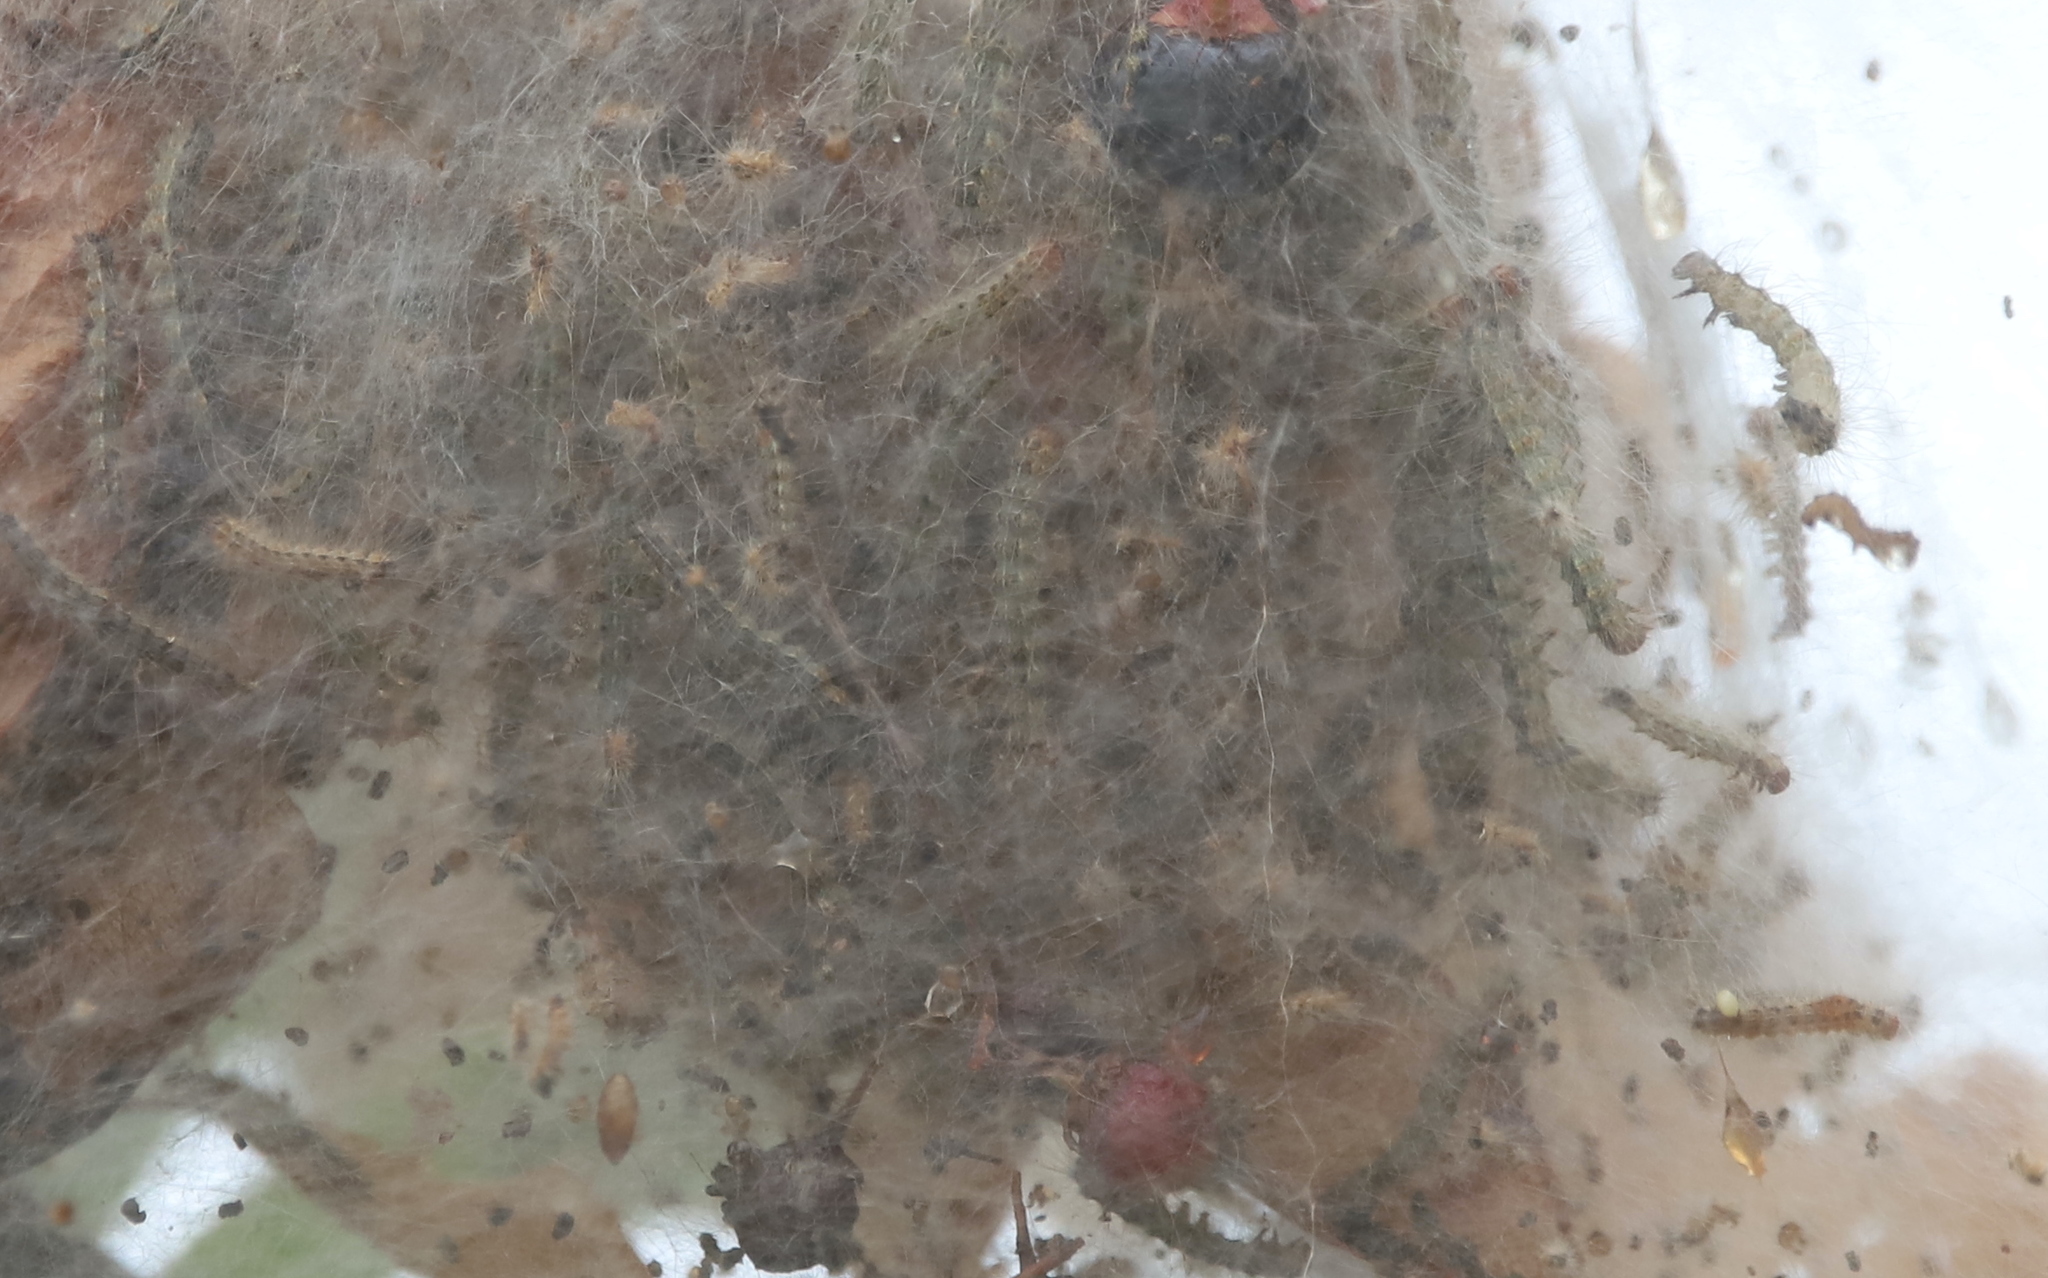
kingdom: Animalia
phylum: Arthropoda
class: Insecta
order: Lepidoptera
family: Erebidae
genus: Hyphantria
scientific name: Hyphantria cunea
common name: American white moth
